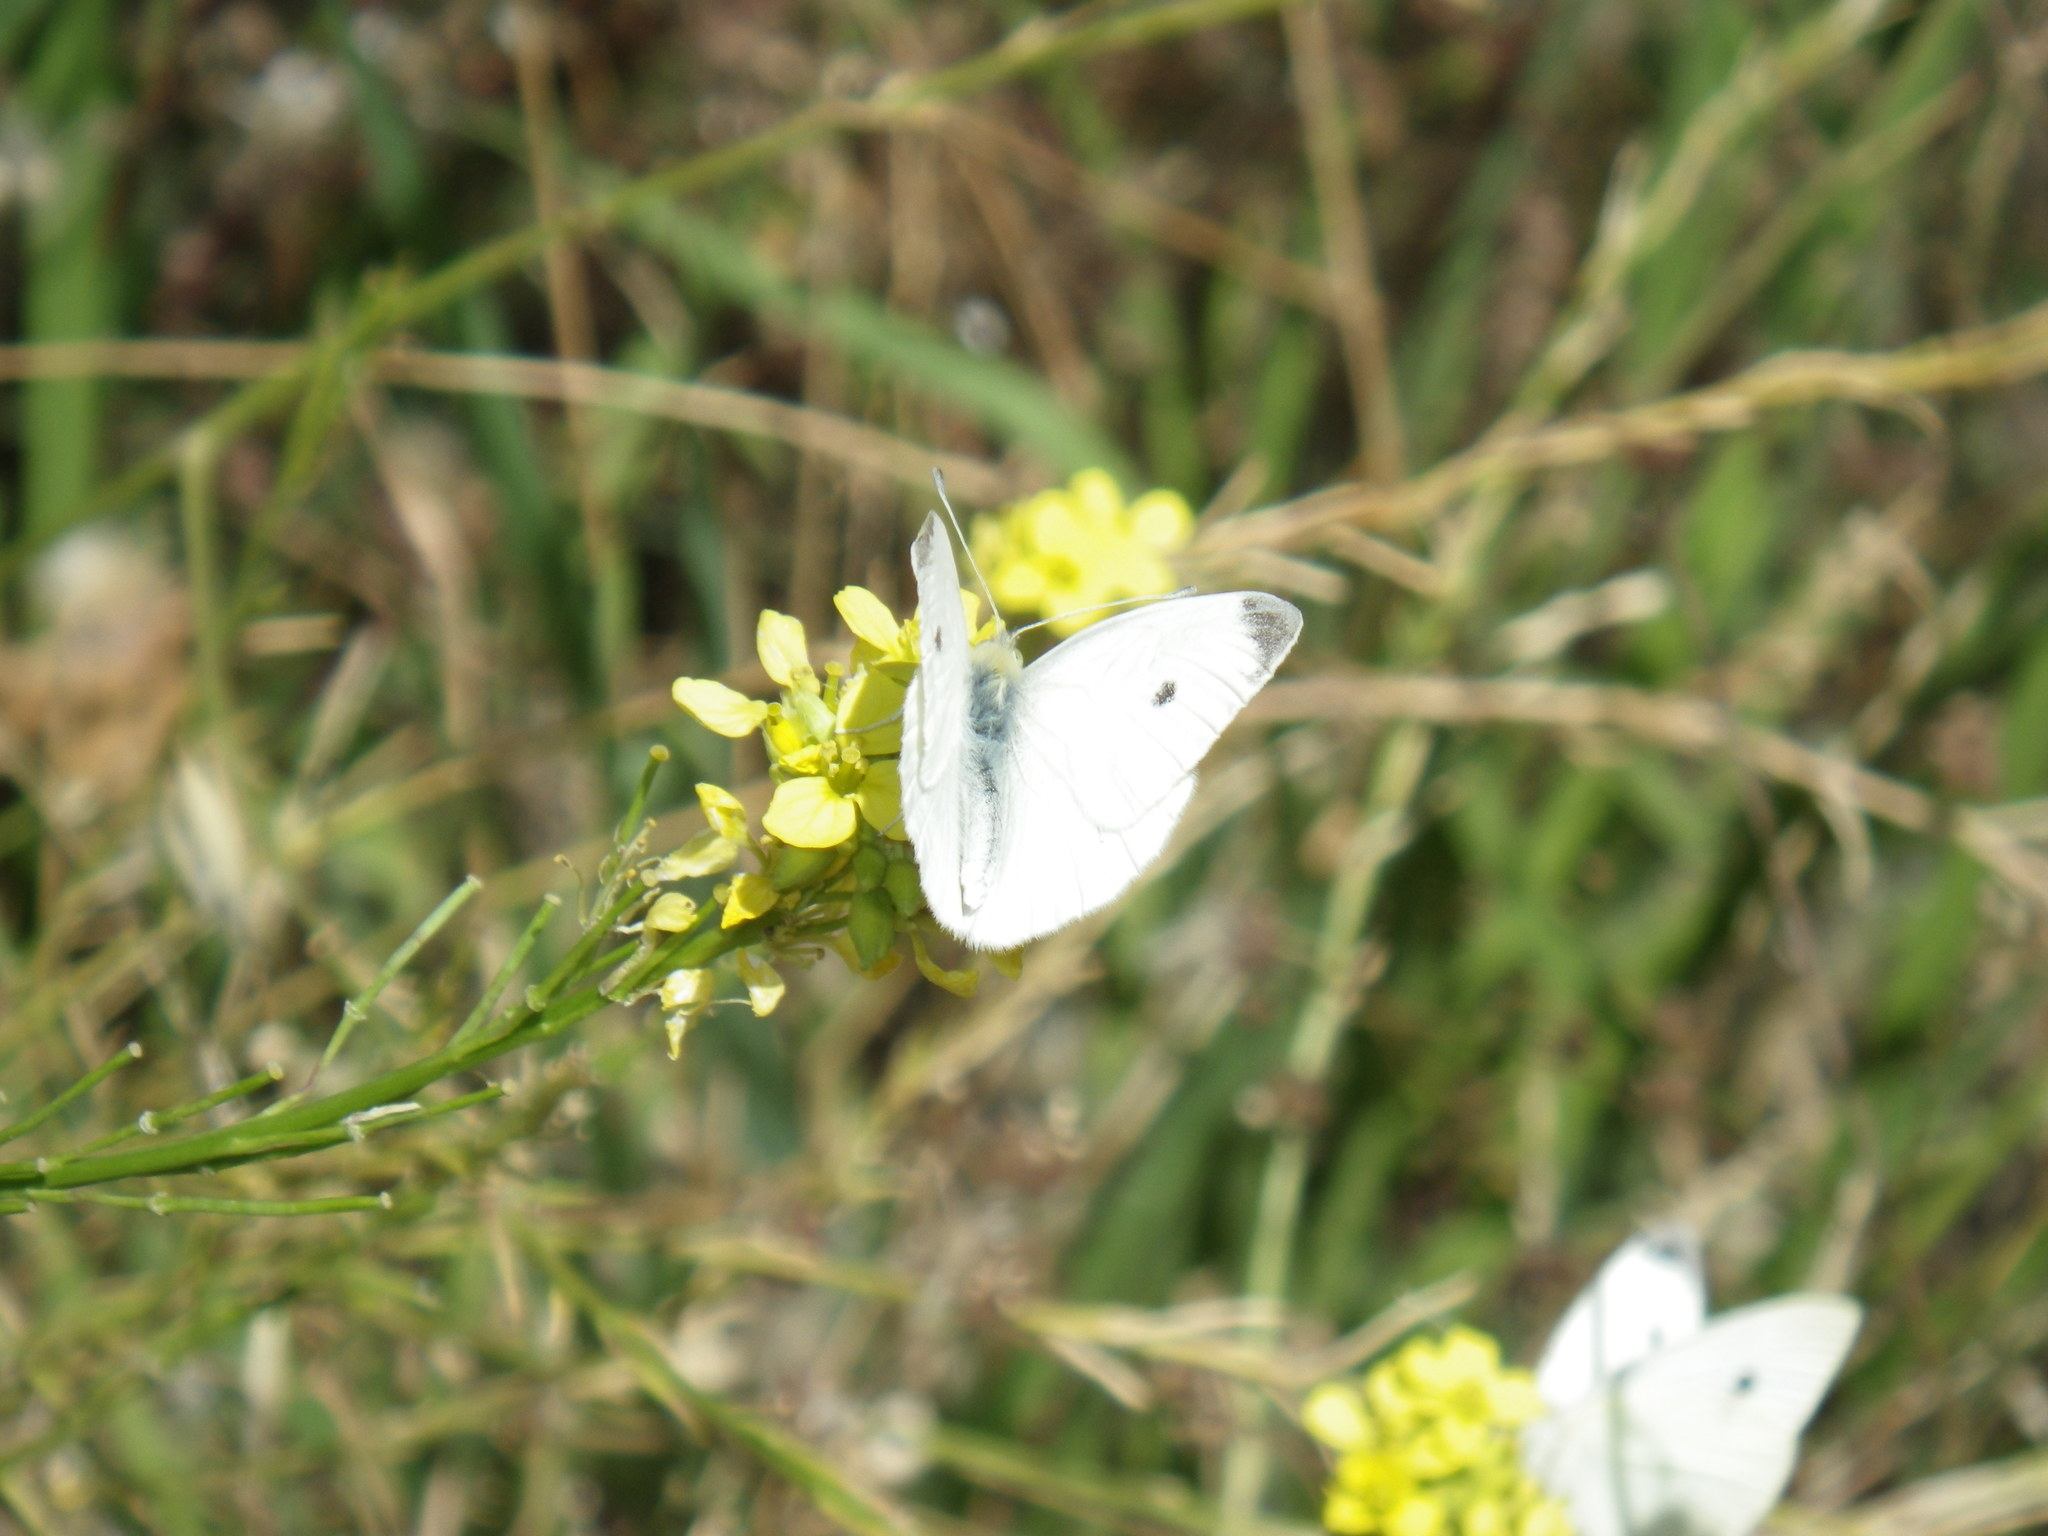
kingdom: Animalia
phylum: Arthropoda
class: Insecta
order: Lepidoptera
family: Pieridae
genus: Pieris
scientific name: Pieris rapae
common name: Small white
